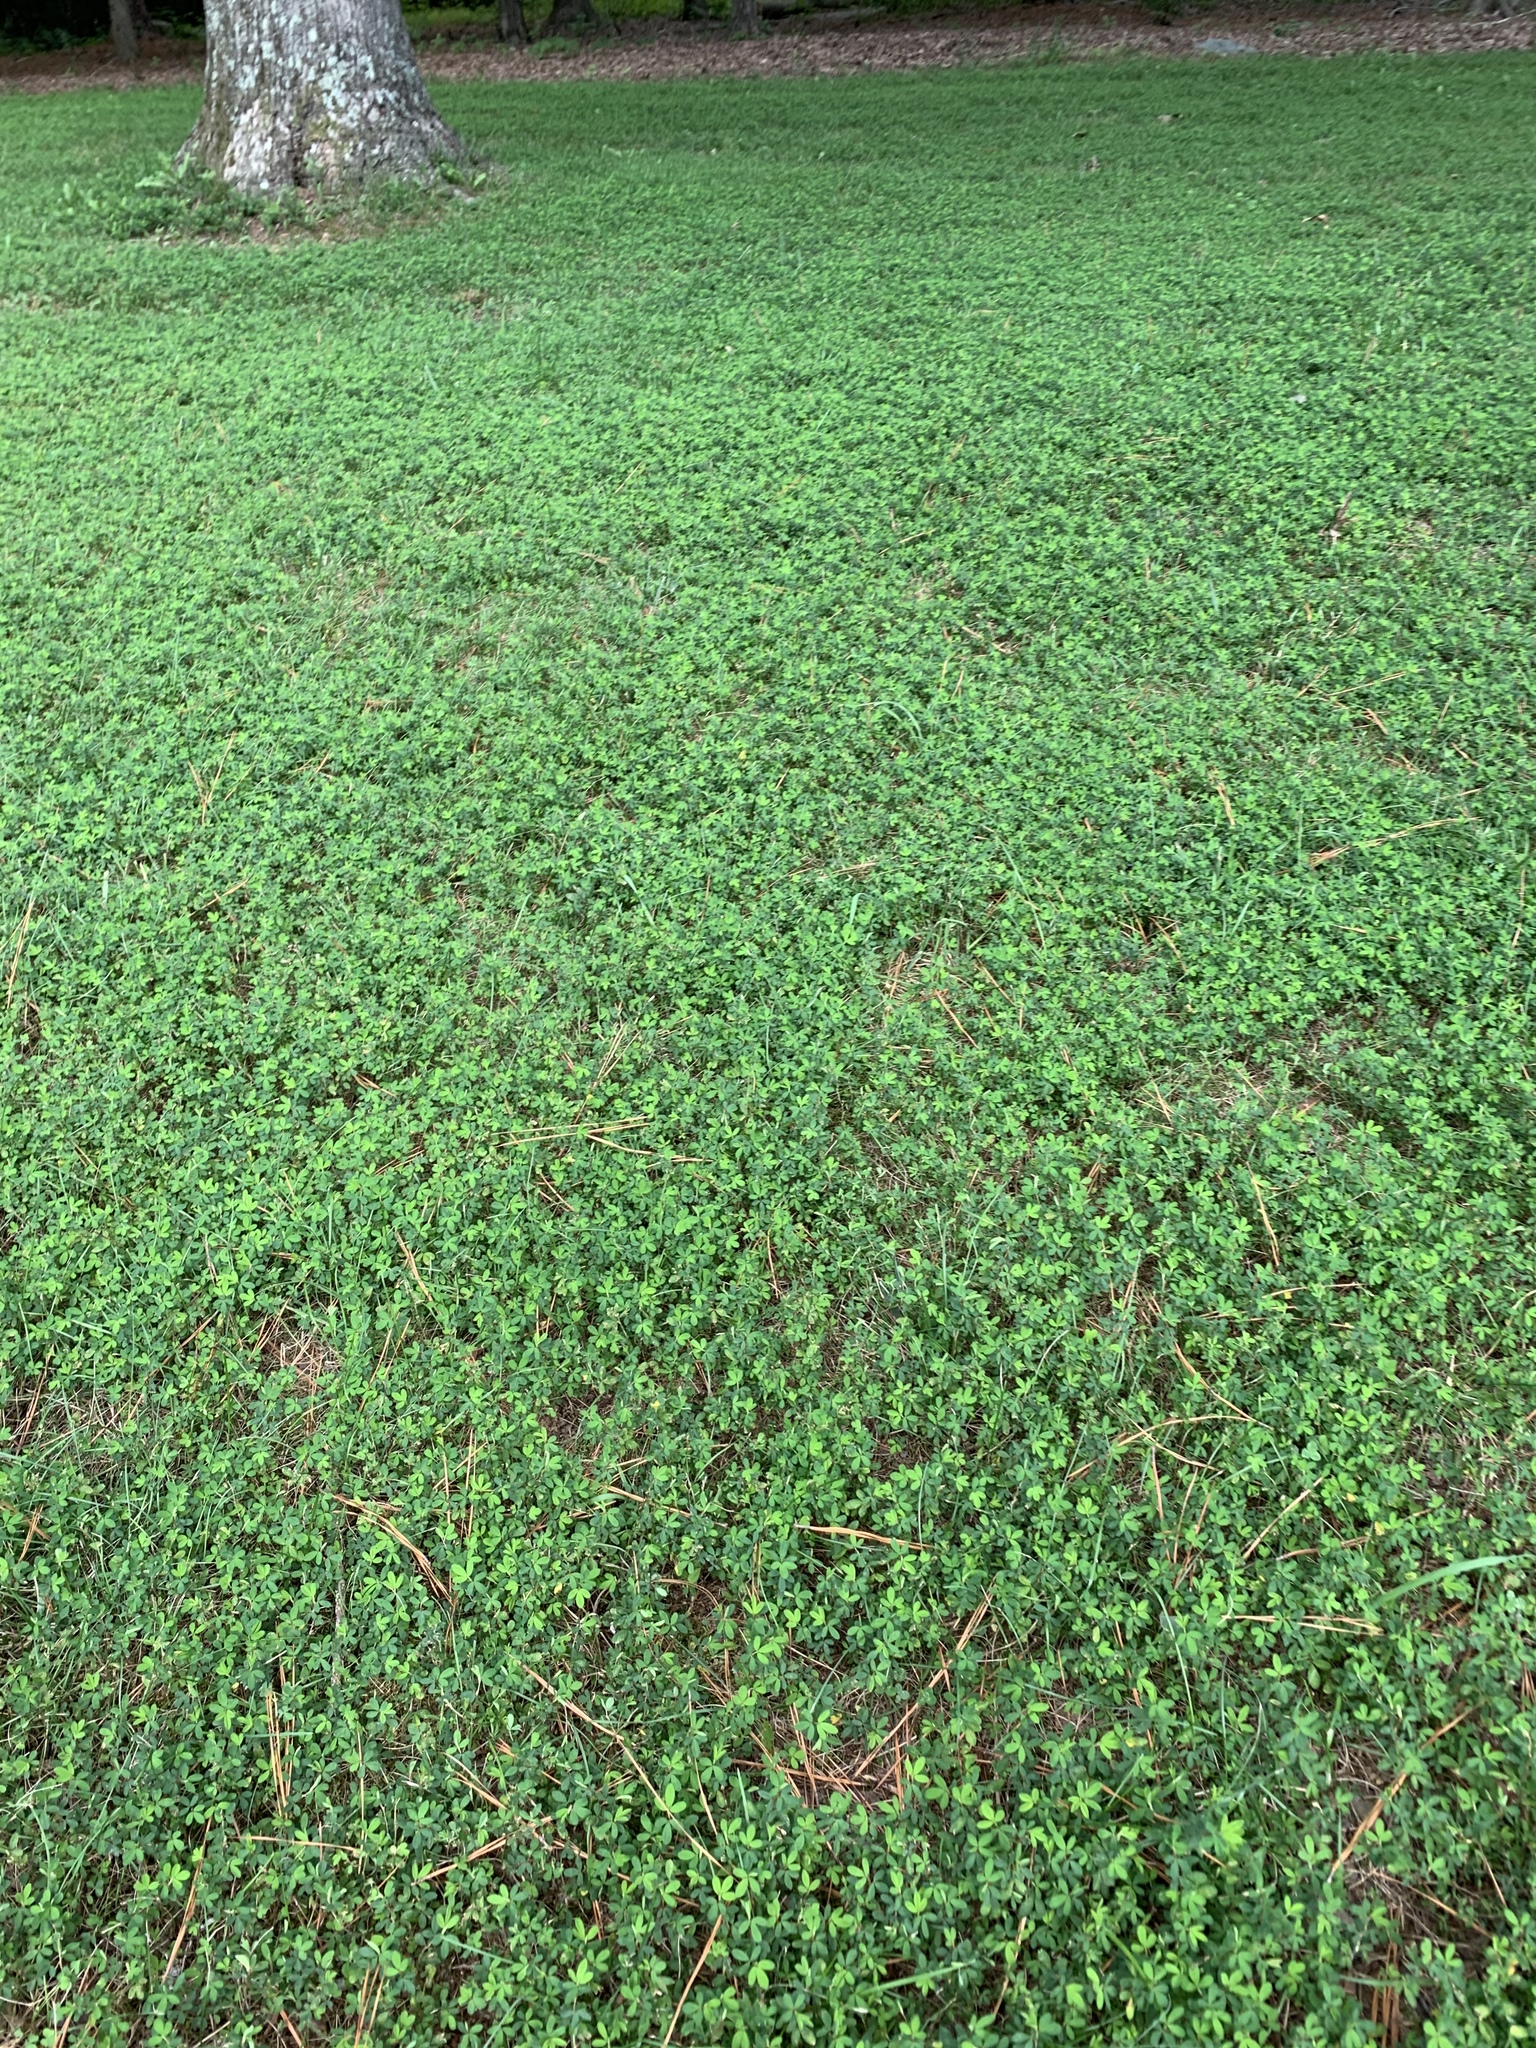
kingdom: Plantae
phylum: Tracheophyta
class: Magnoliopsida
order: Fabales
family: Fabaceae
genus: Kummerowia
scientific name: Kummerowia striata
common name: Japanese clover
